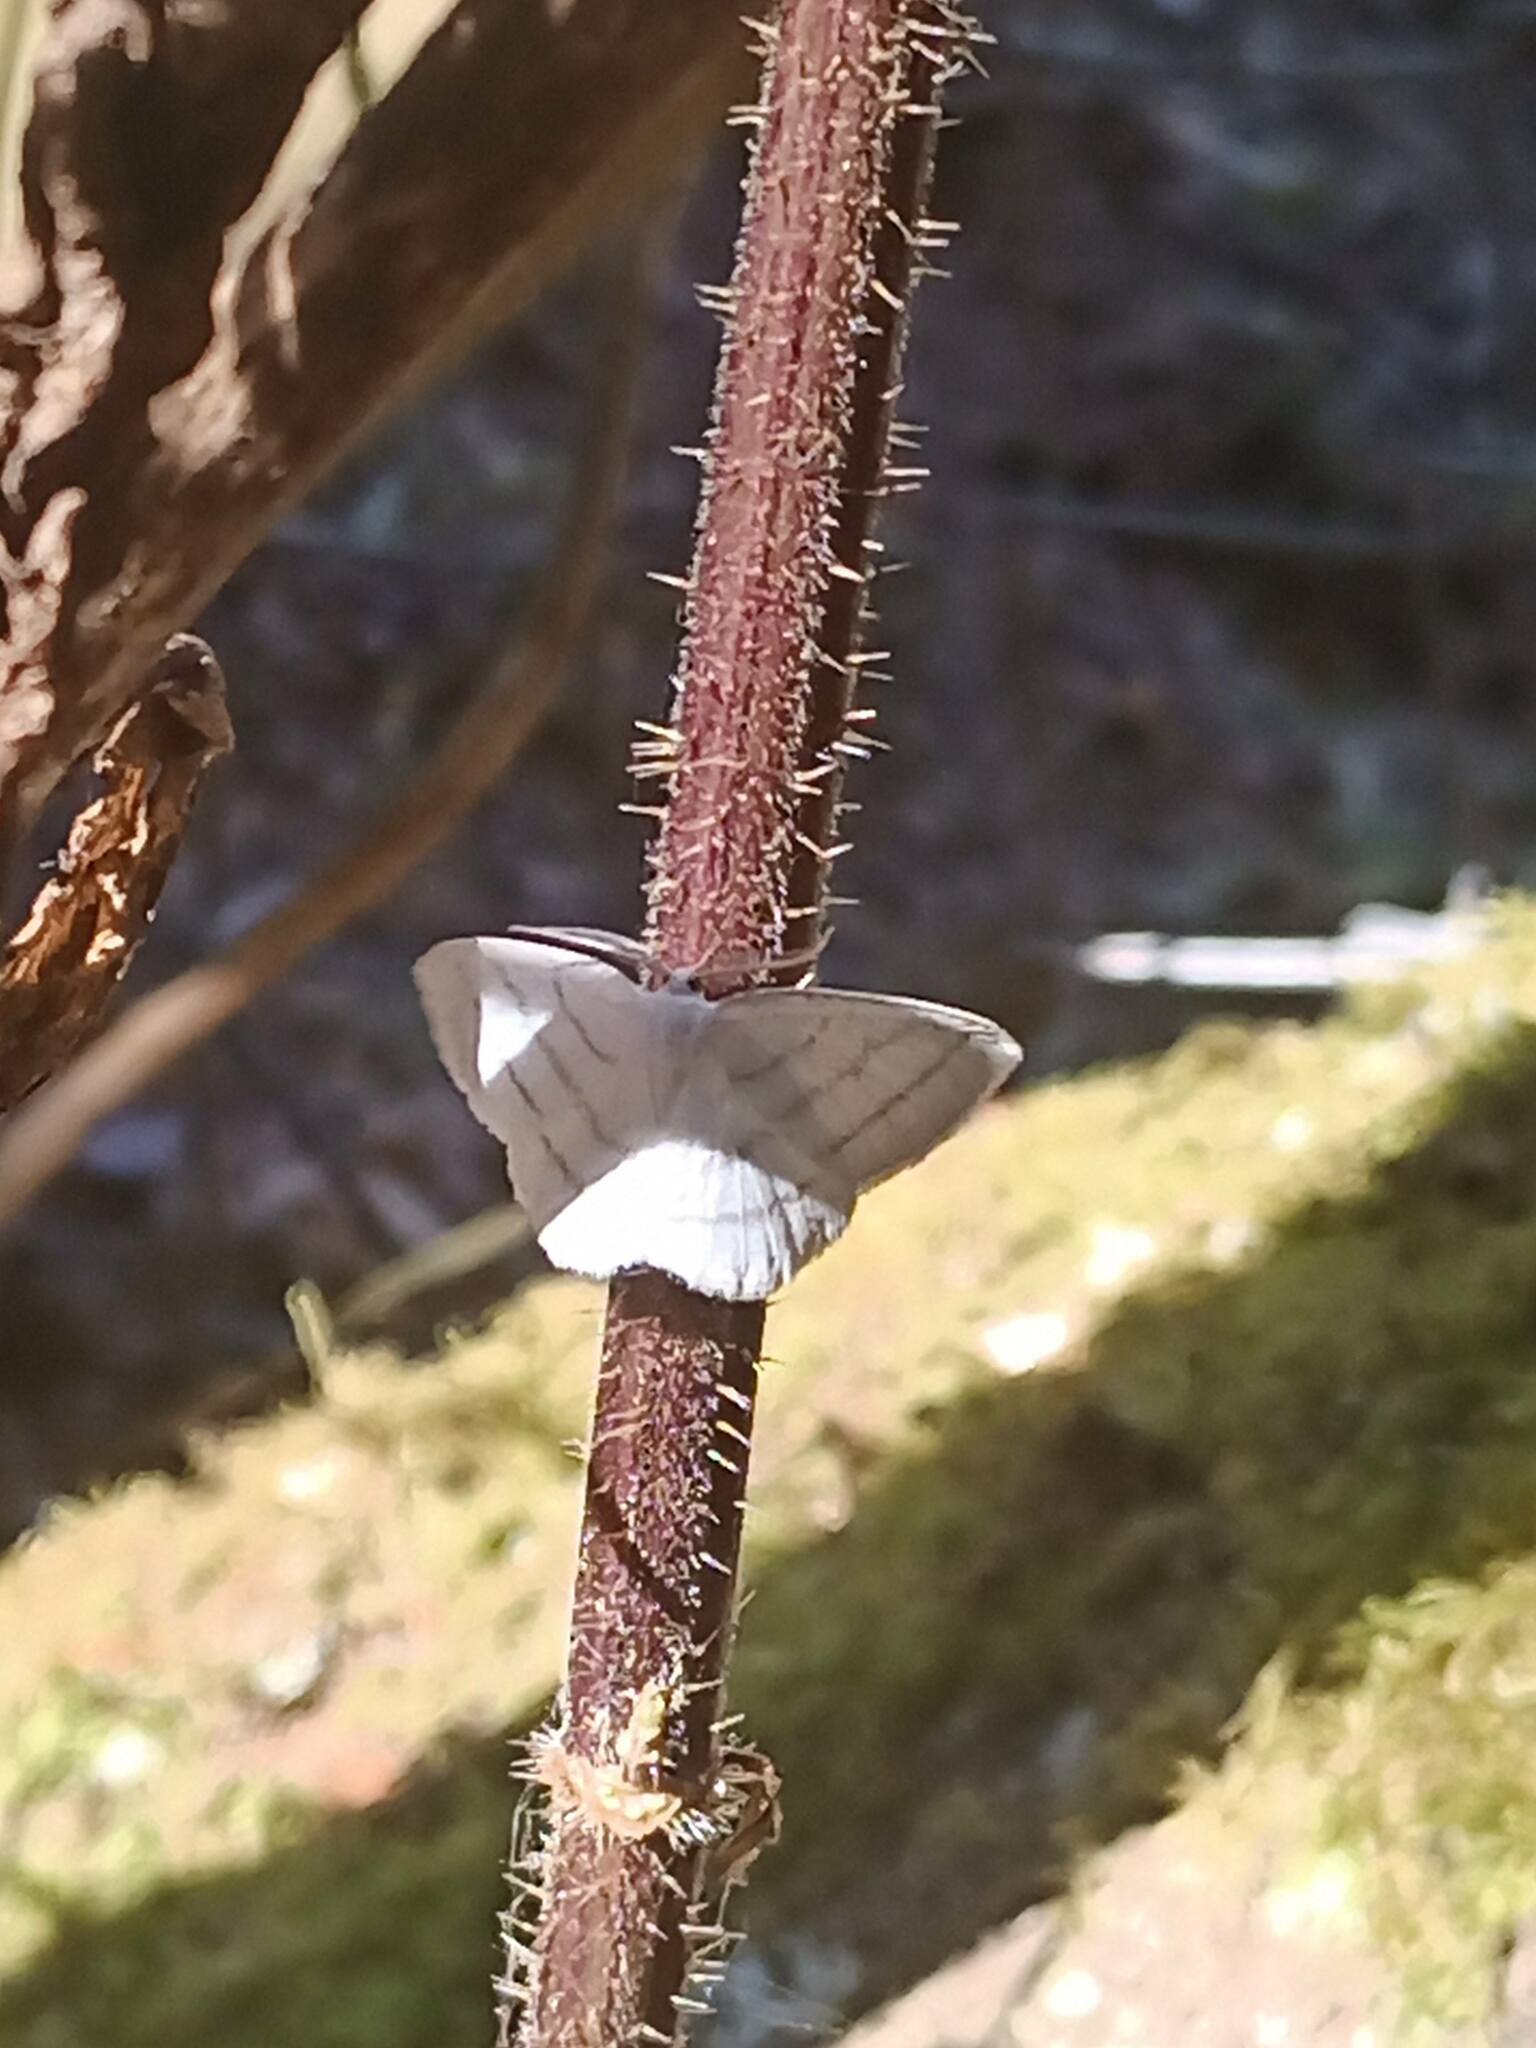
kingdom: Animalia
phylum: Arthropoda
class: Insecta
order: Lepidoptera
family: Geometridae
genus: Cabera
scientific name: Cabera pusaria
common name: Common white wave
